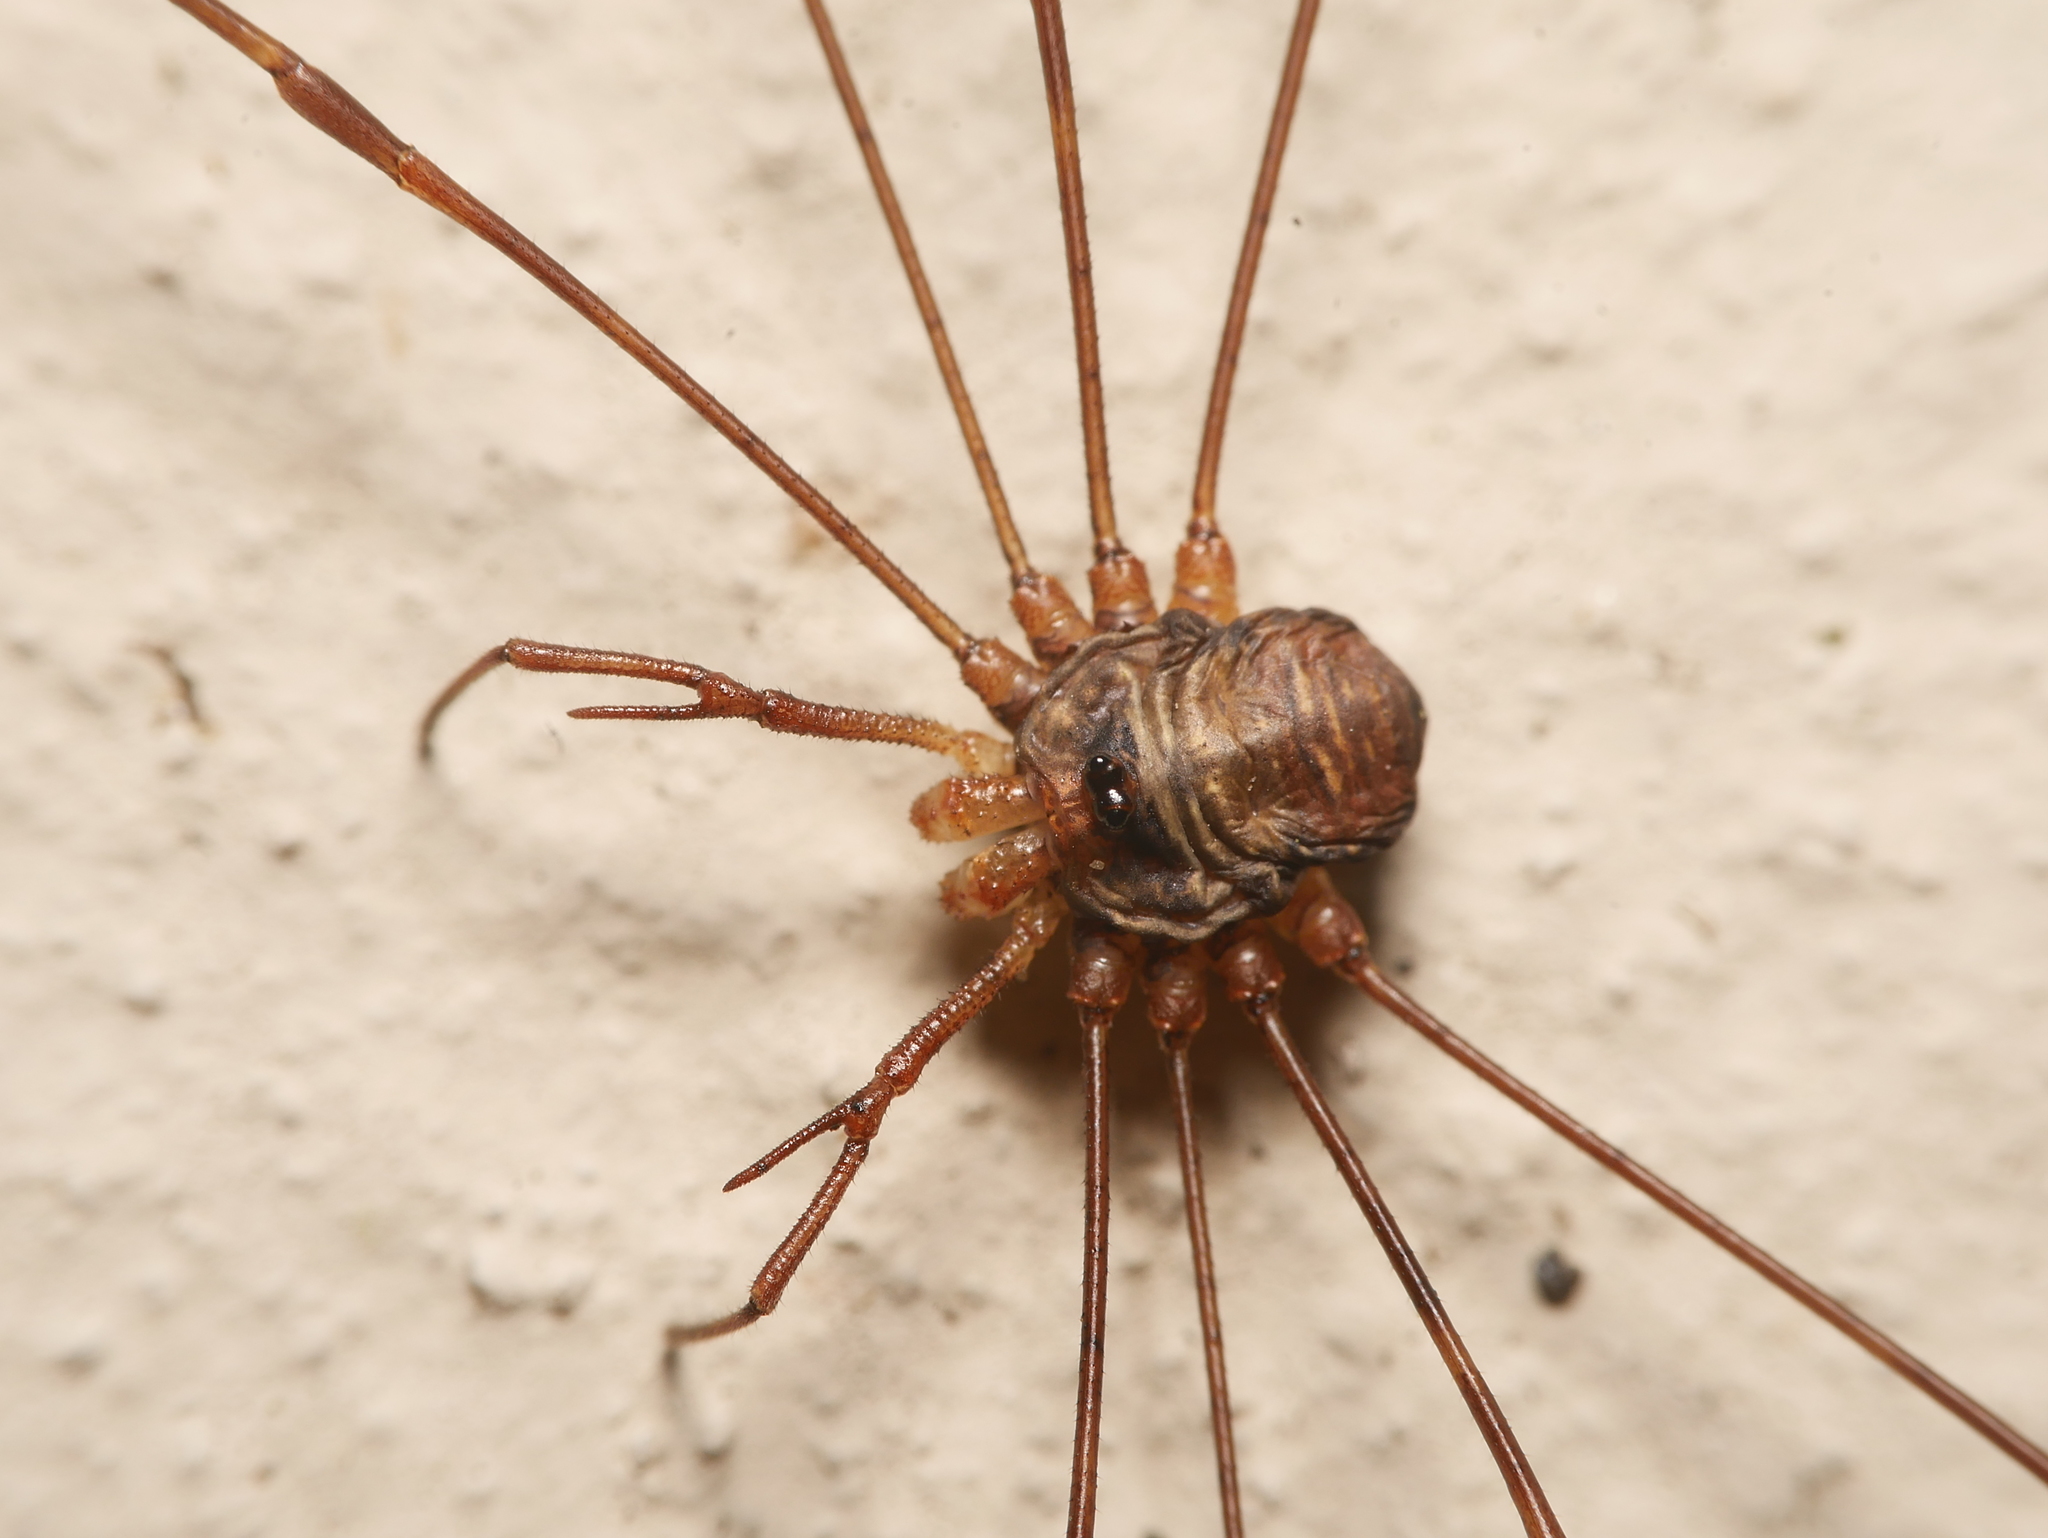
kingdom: Animalia
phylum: Arthropoda
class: Arachnida
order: Opiliones
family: Phalangiidae
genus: Dicranopalpus
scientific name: Dicranopalpus ramosus
